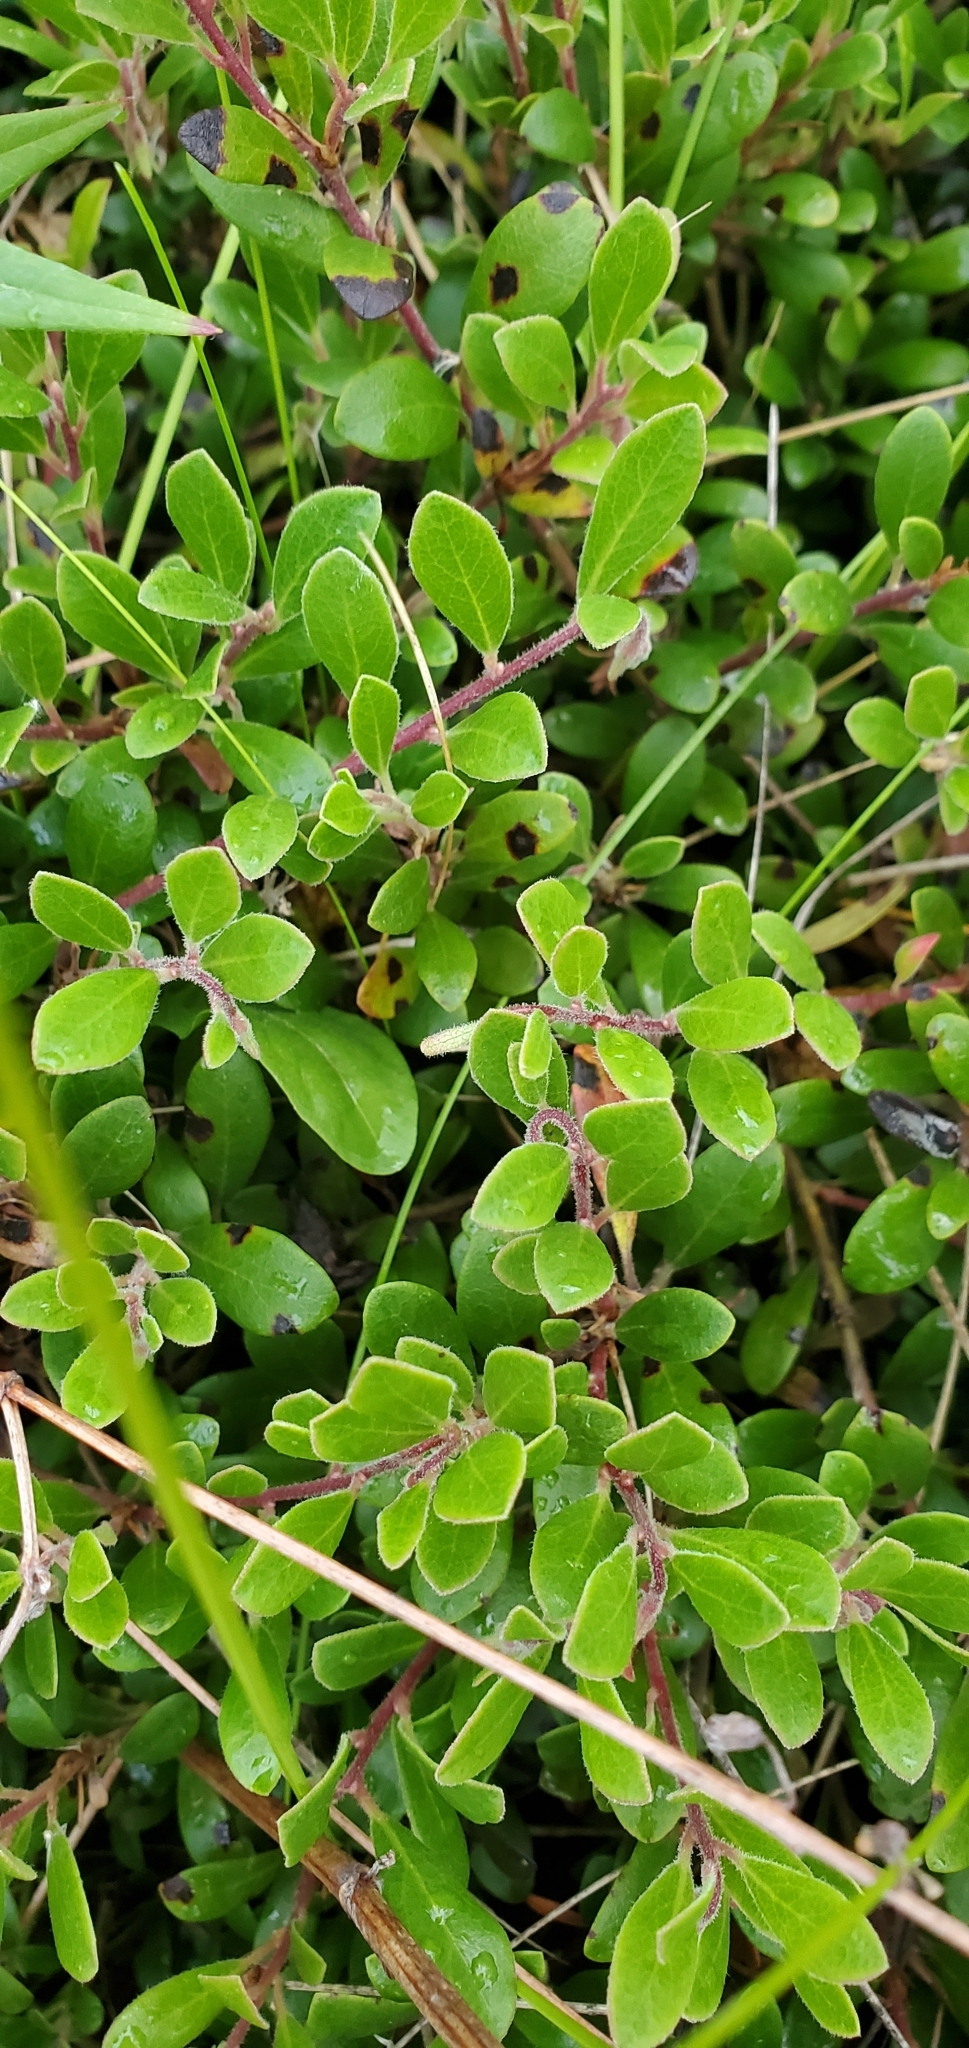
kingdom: Plantae
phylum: Tracheophyta
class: Magnoliopsida
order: Ericales
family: Ericaceae
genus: Arctostaphylos
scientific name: Arctostaphylos uva-ursi
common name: Bearberry
